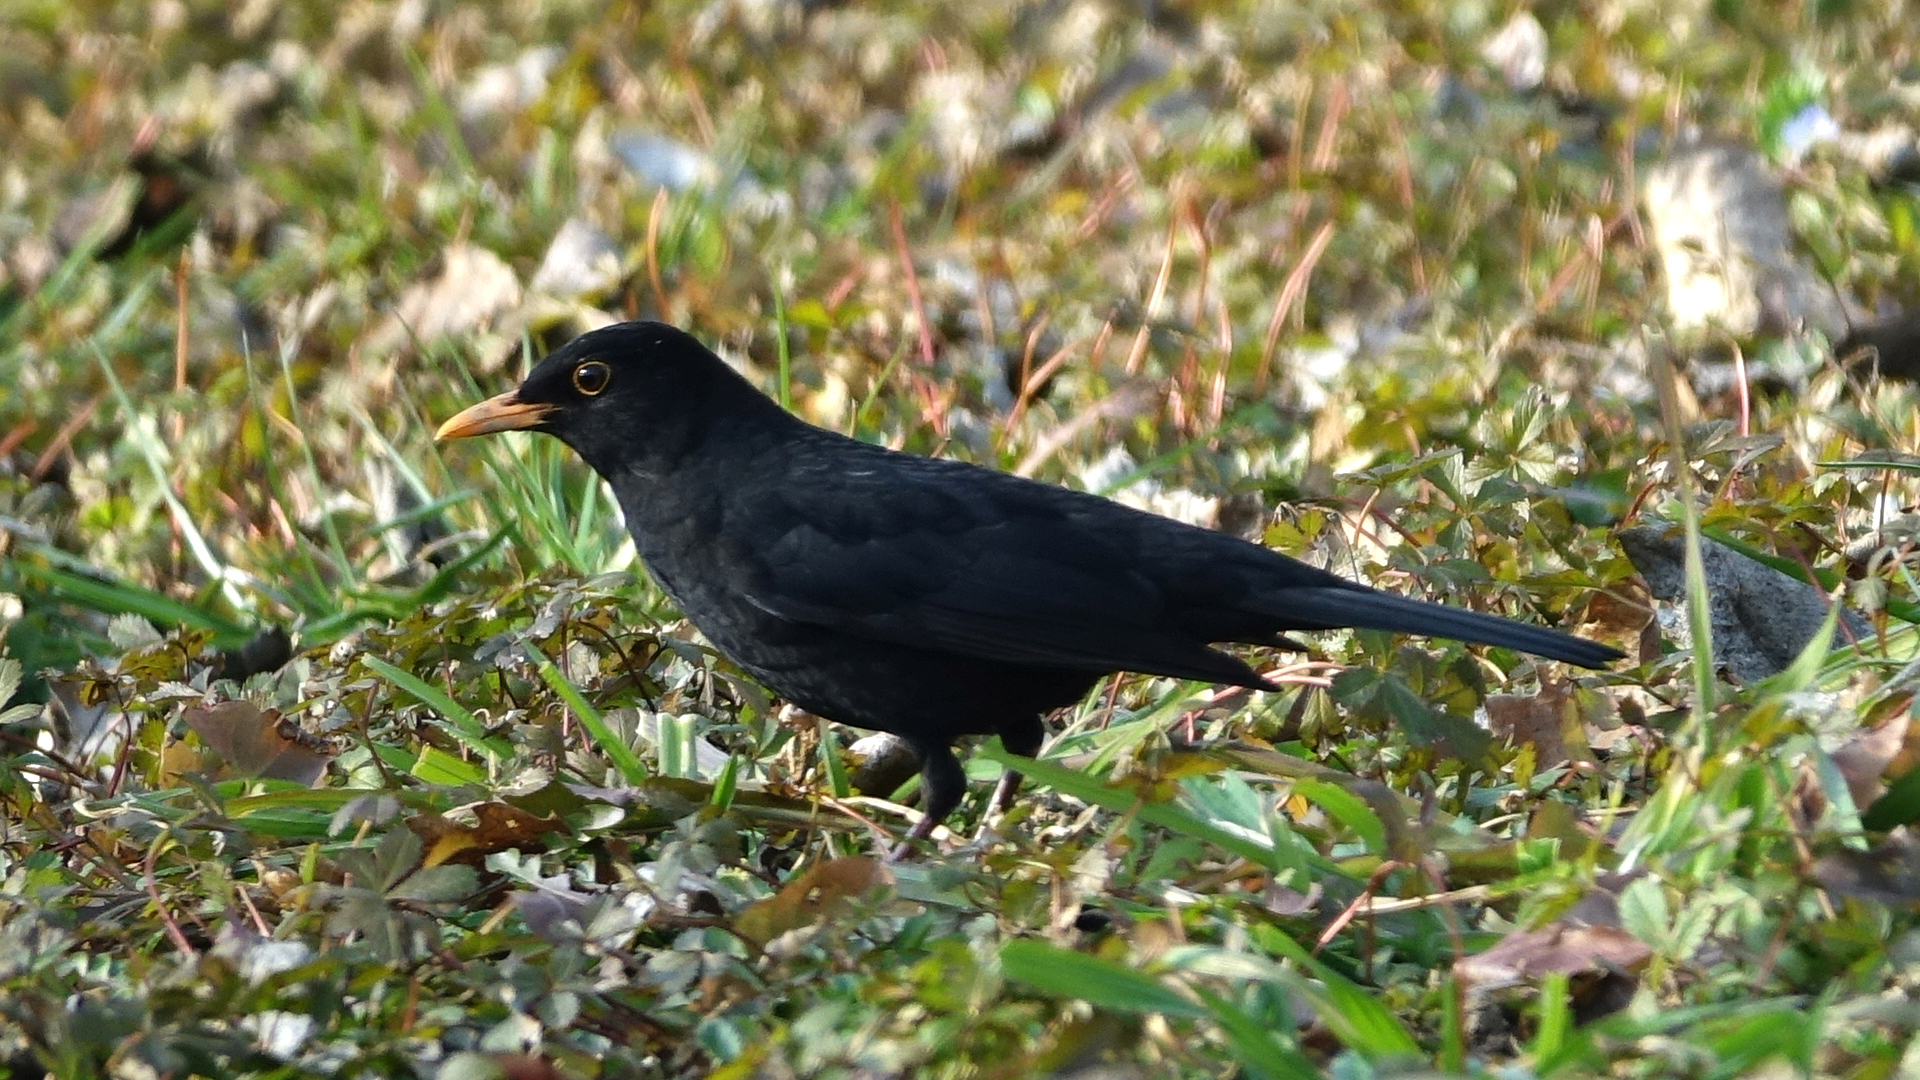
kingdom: Animalia
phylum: Chordata
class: Aves
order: Passeriformes
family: Turdidae
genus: Turdus
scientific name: Turdus merula
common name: Common blackbird
